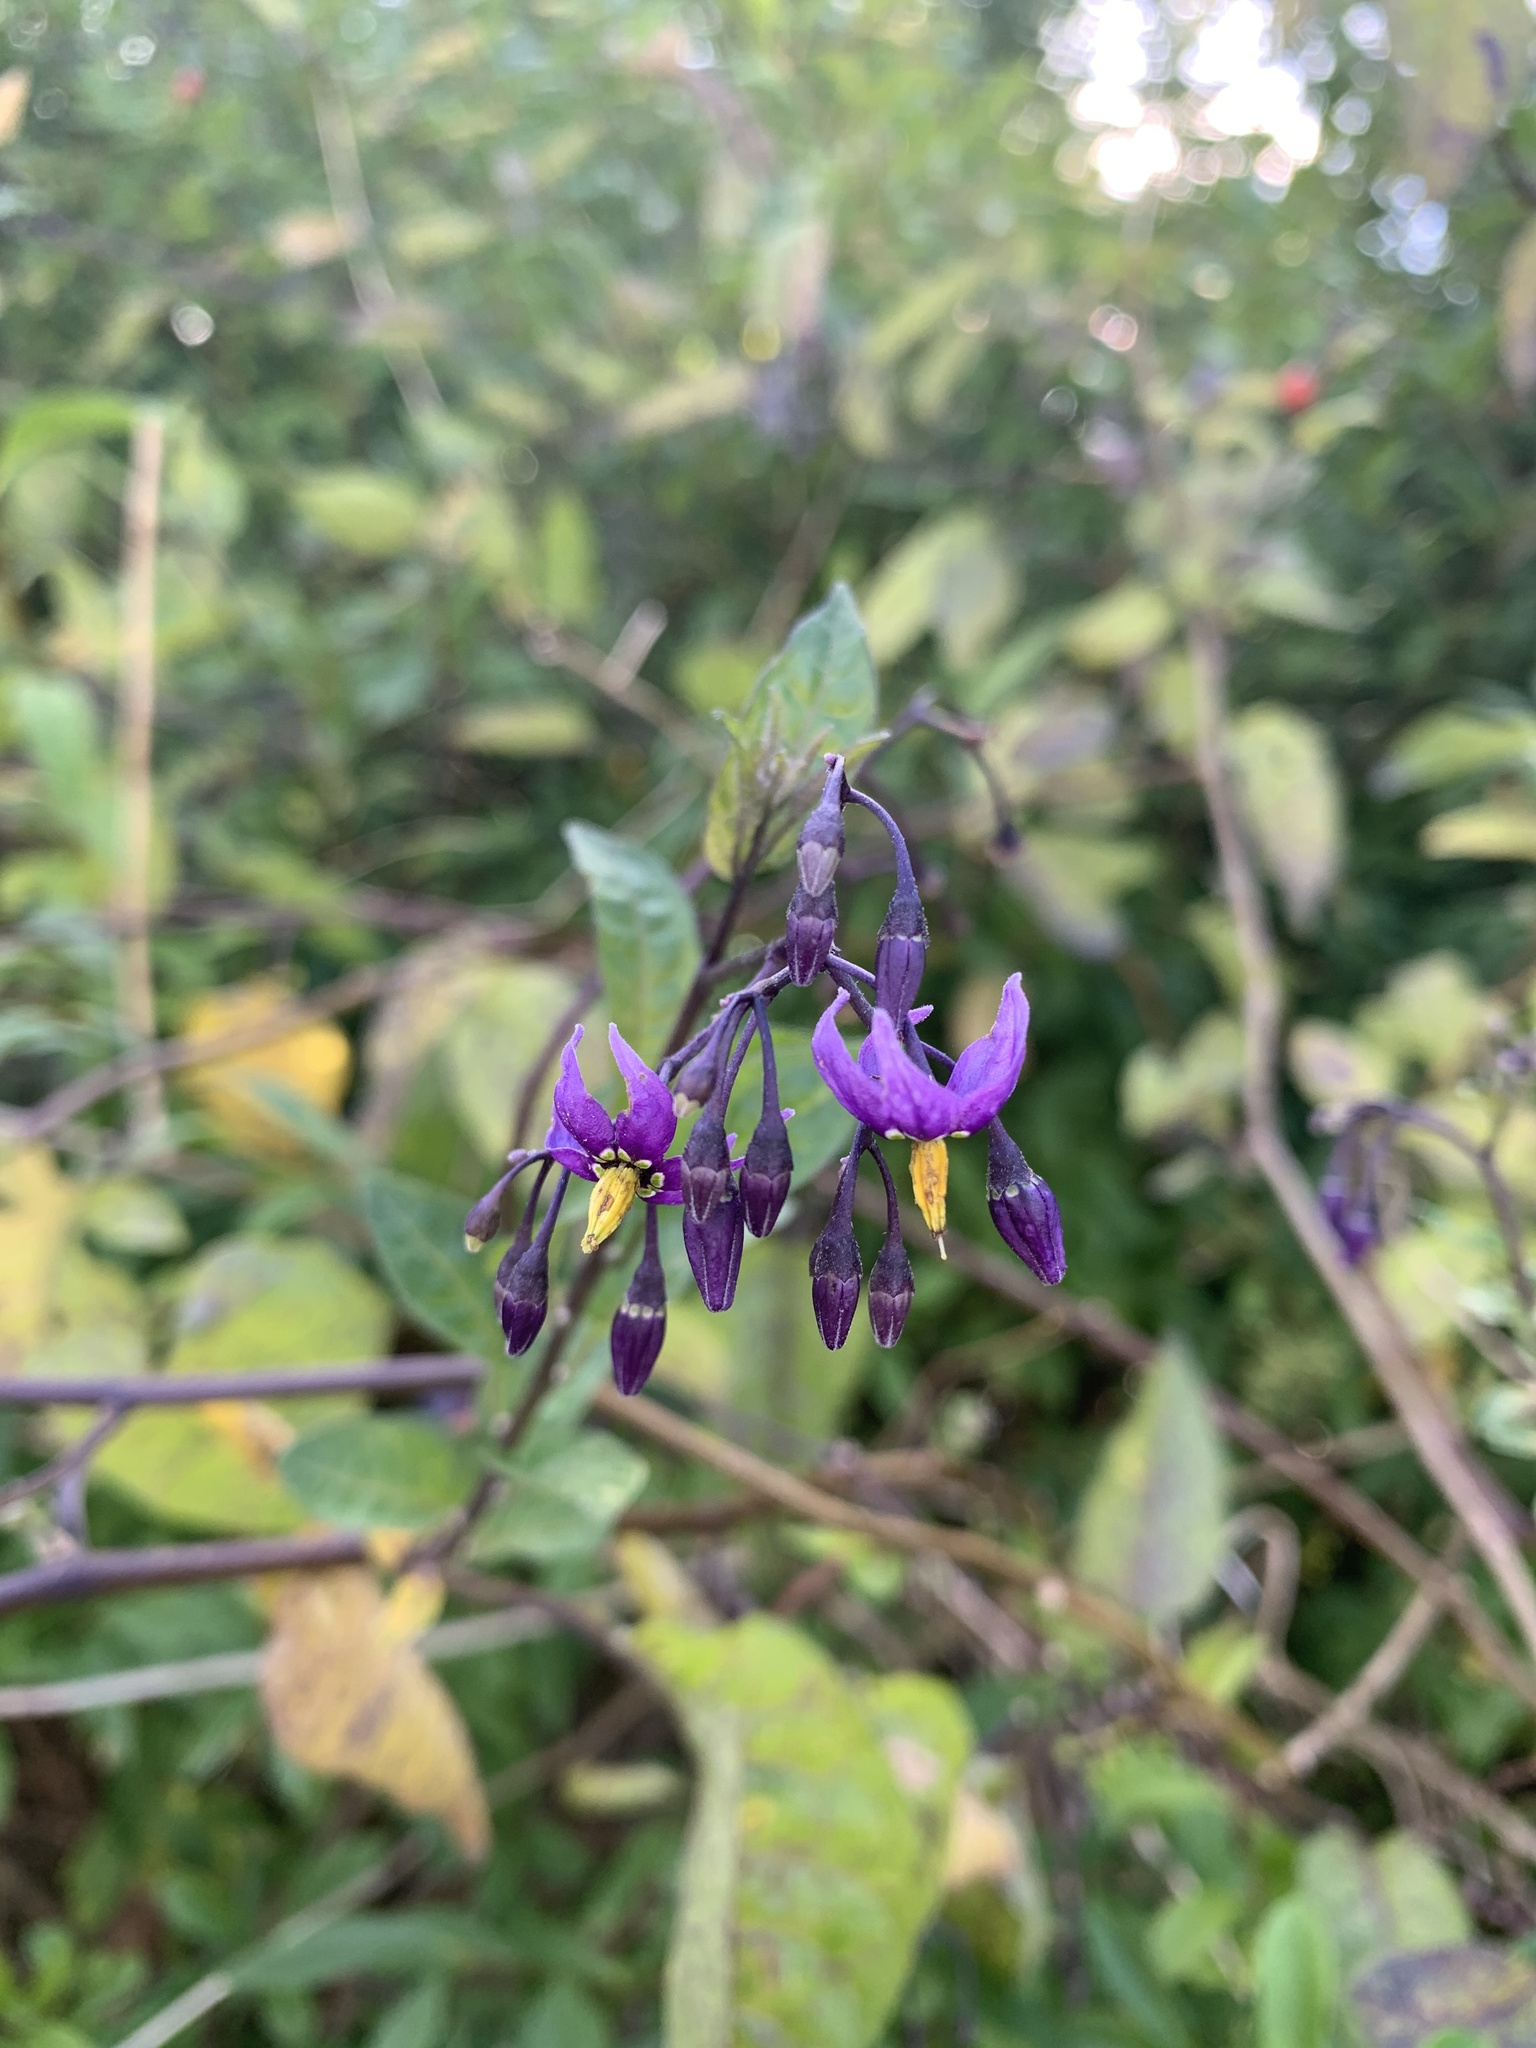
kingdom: Plantae
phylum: Tracheophyta
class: Magnoliopsida
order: Solanales
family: Solanaceae
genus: Solanum
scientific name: Solanum dulcamara
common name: Climbing nightshade
